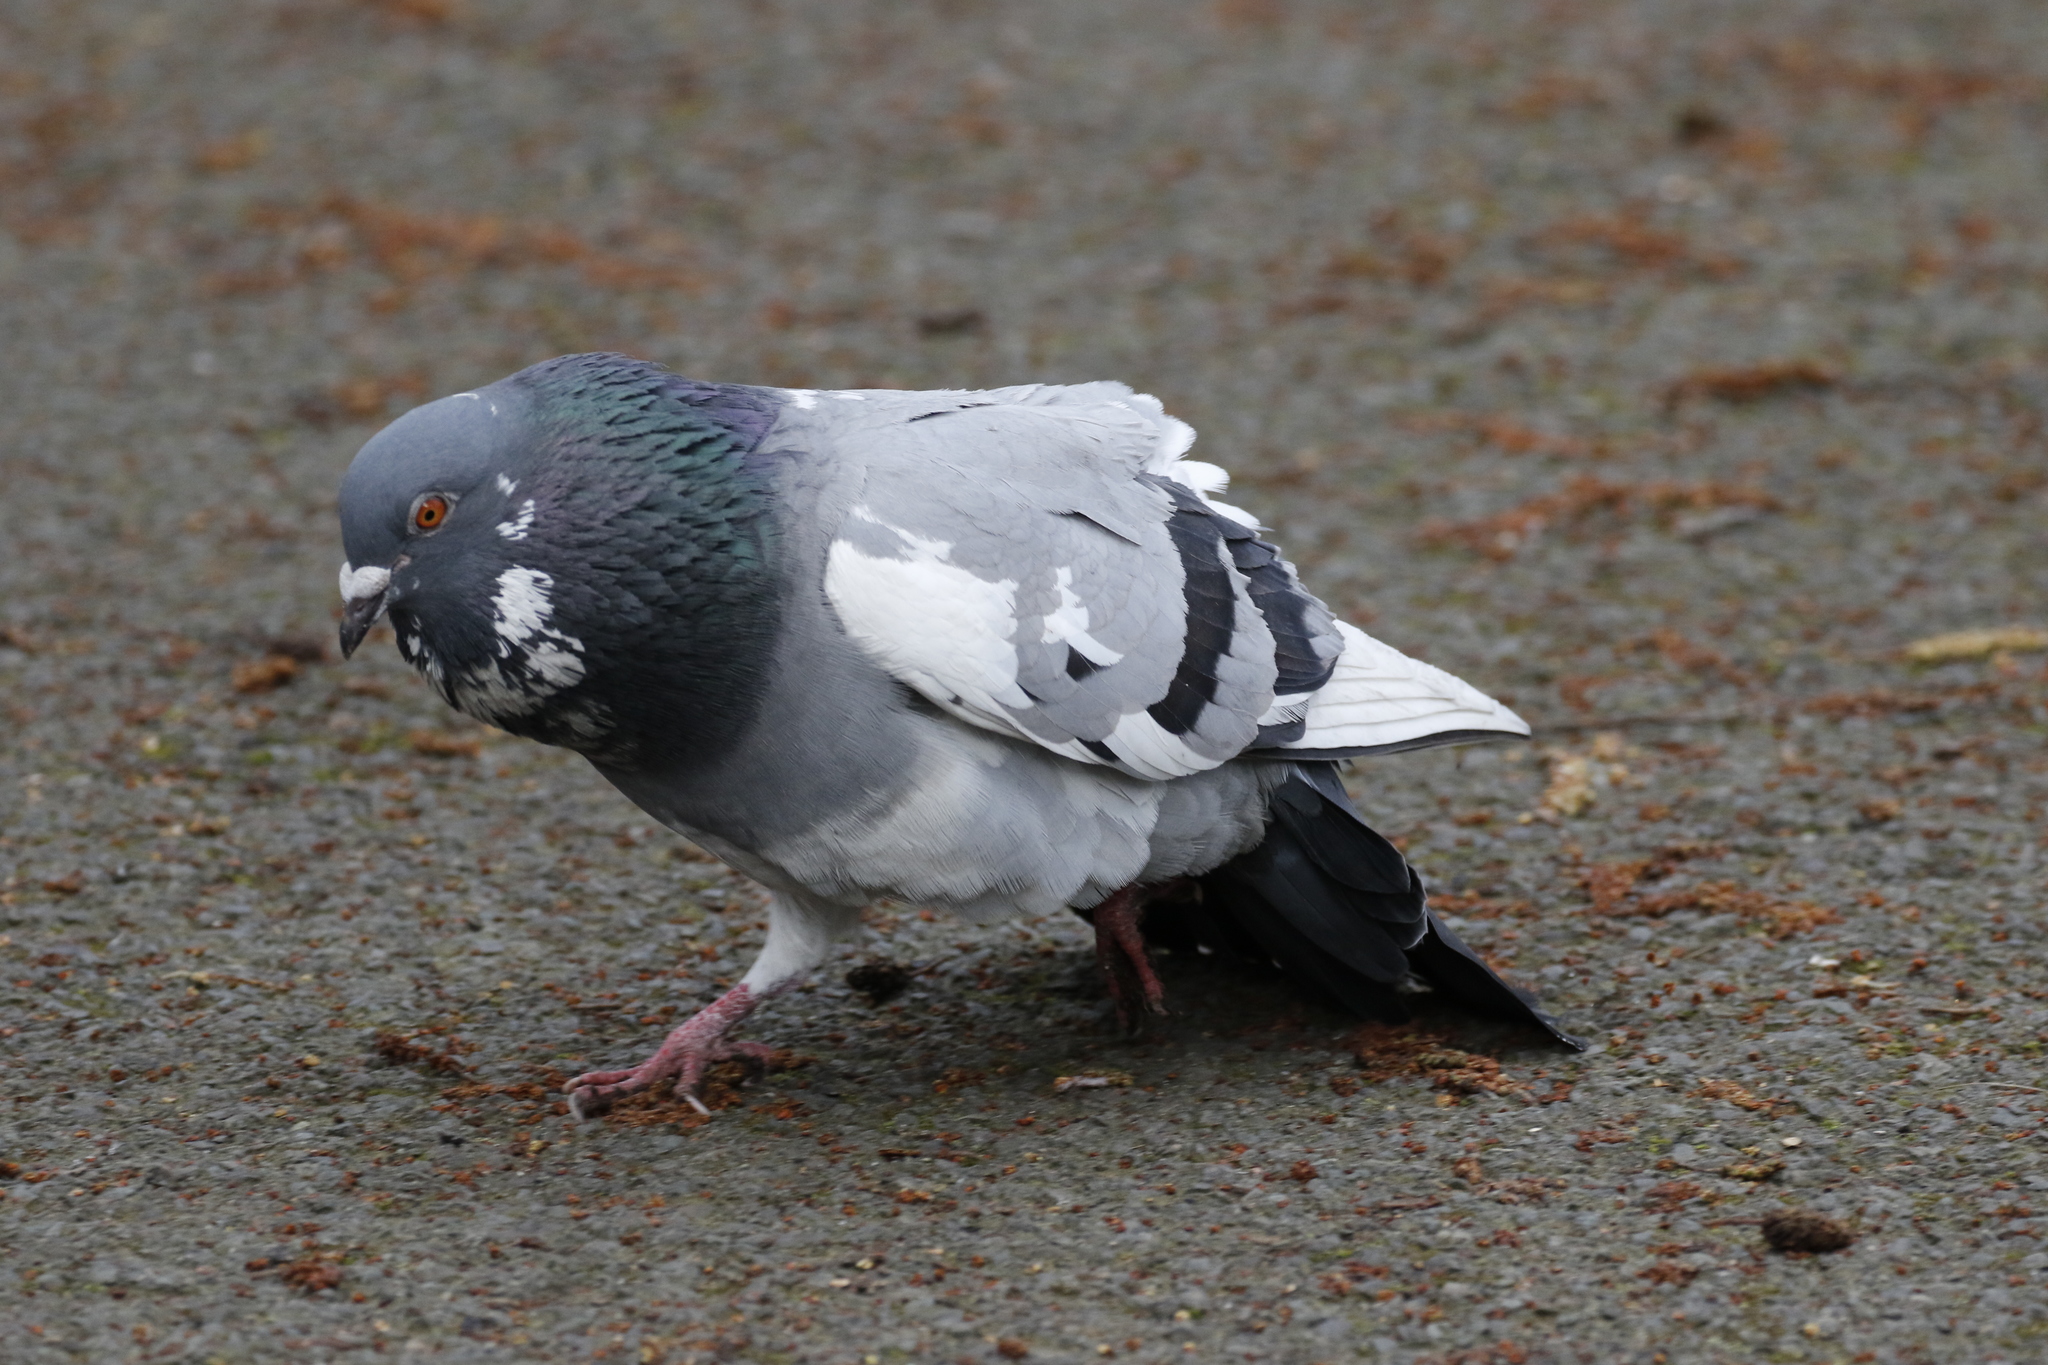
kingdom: Animalia
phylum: Chordata
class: Aves
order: Columbiformes
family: Columbidae
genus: Columba
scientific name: Columba livia
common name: Rock pigeon
